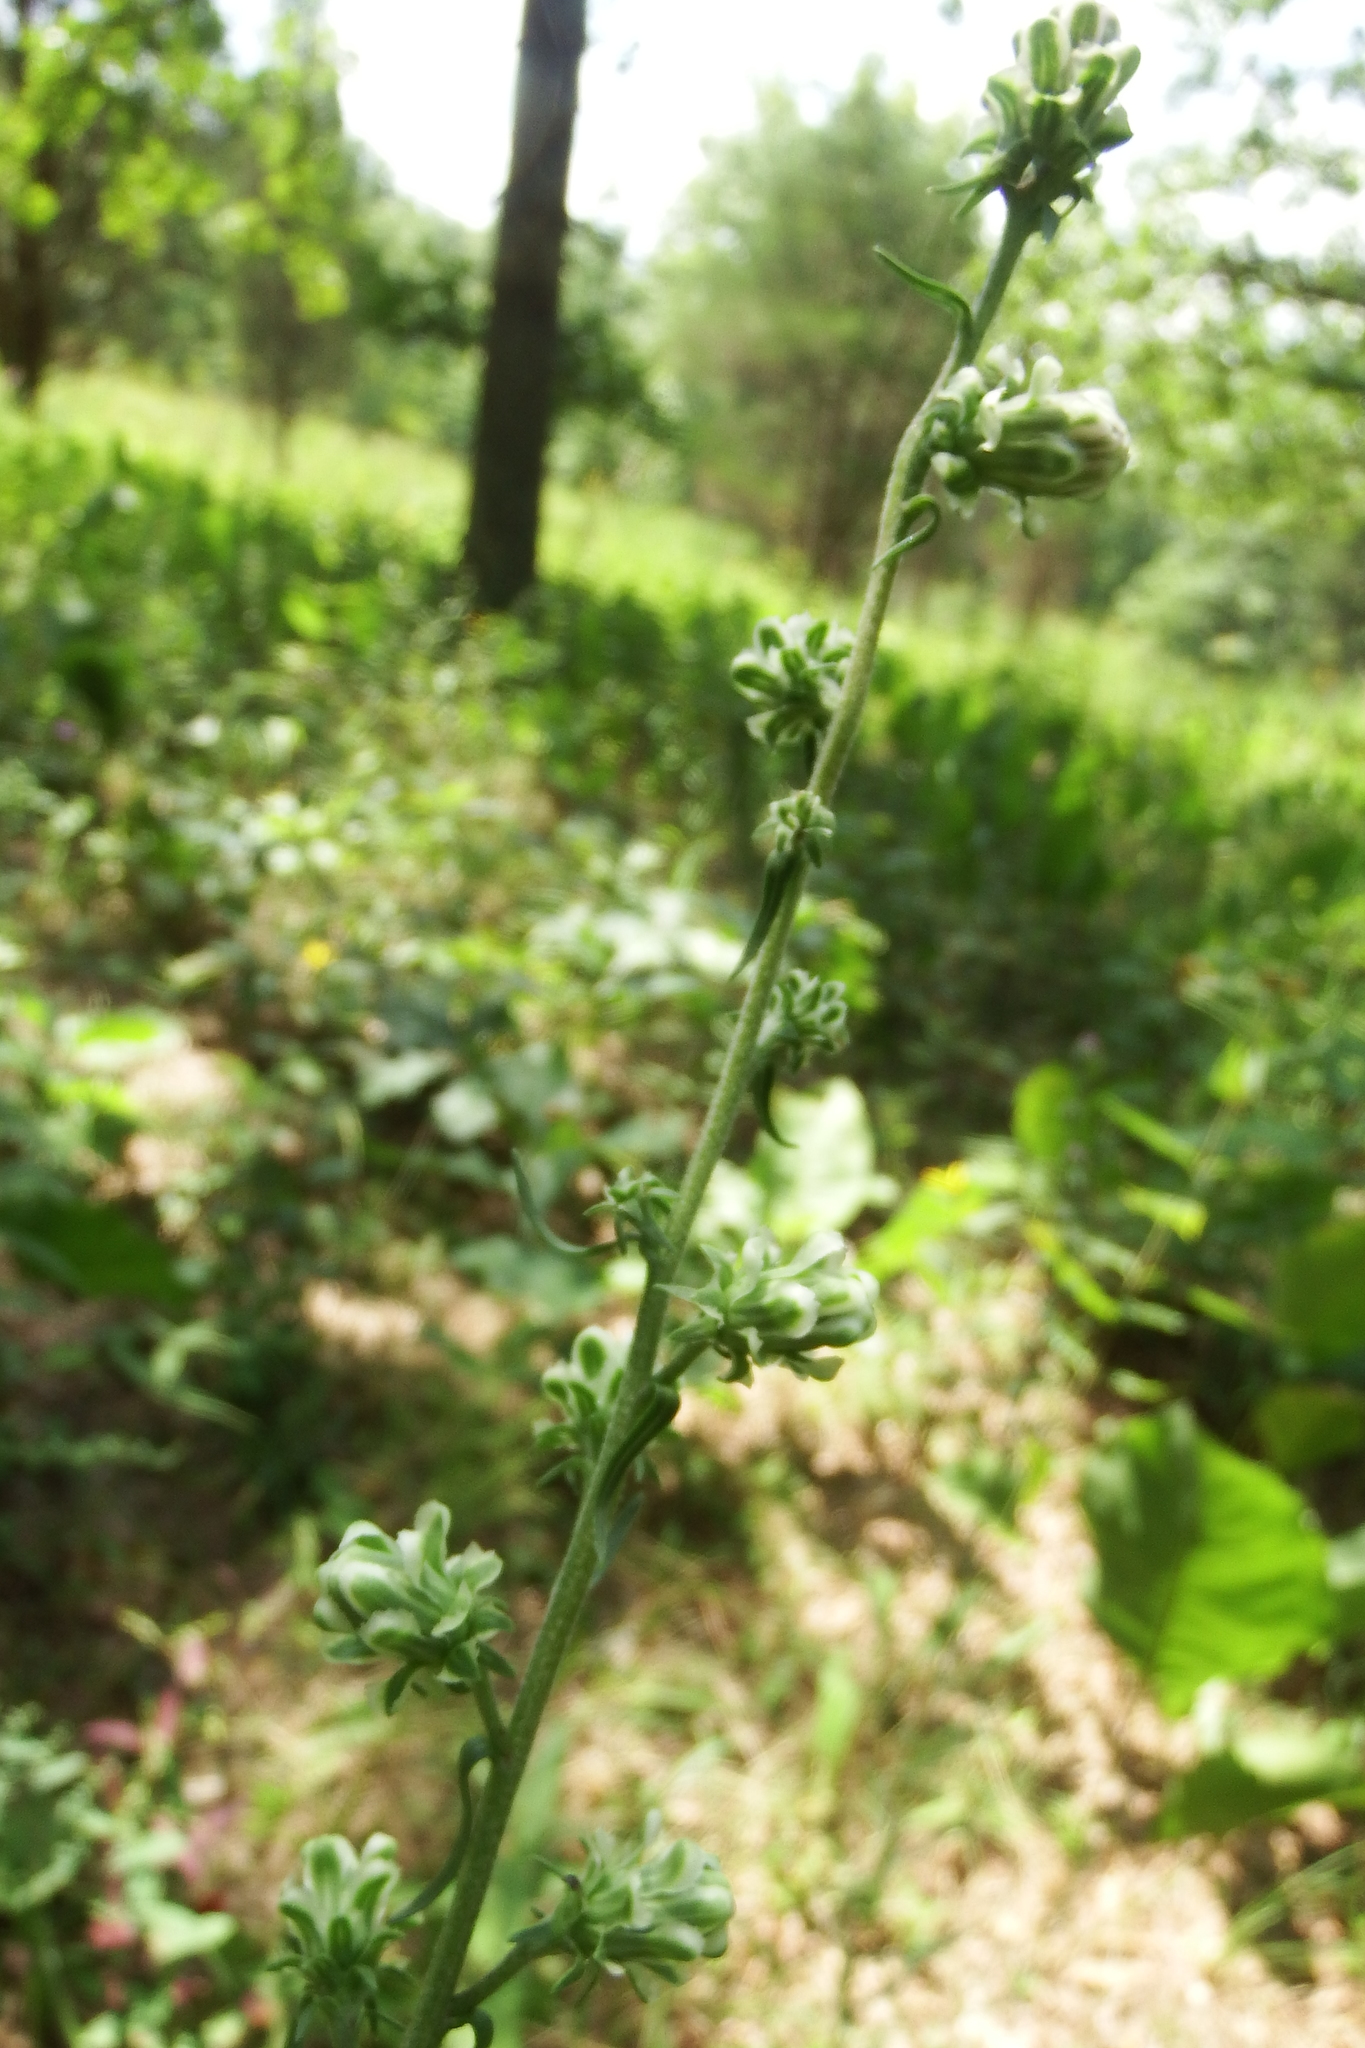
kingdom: Plantae
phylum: Tracheophyta
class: Magnoliopsida
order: Asterales
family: Asteraceae
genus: Liatris
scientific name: Liatris aspera
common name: Lacerate blazing-star
